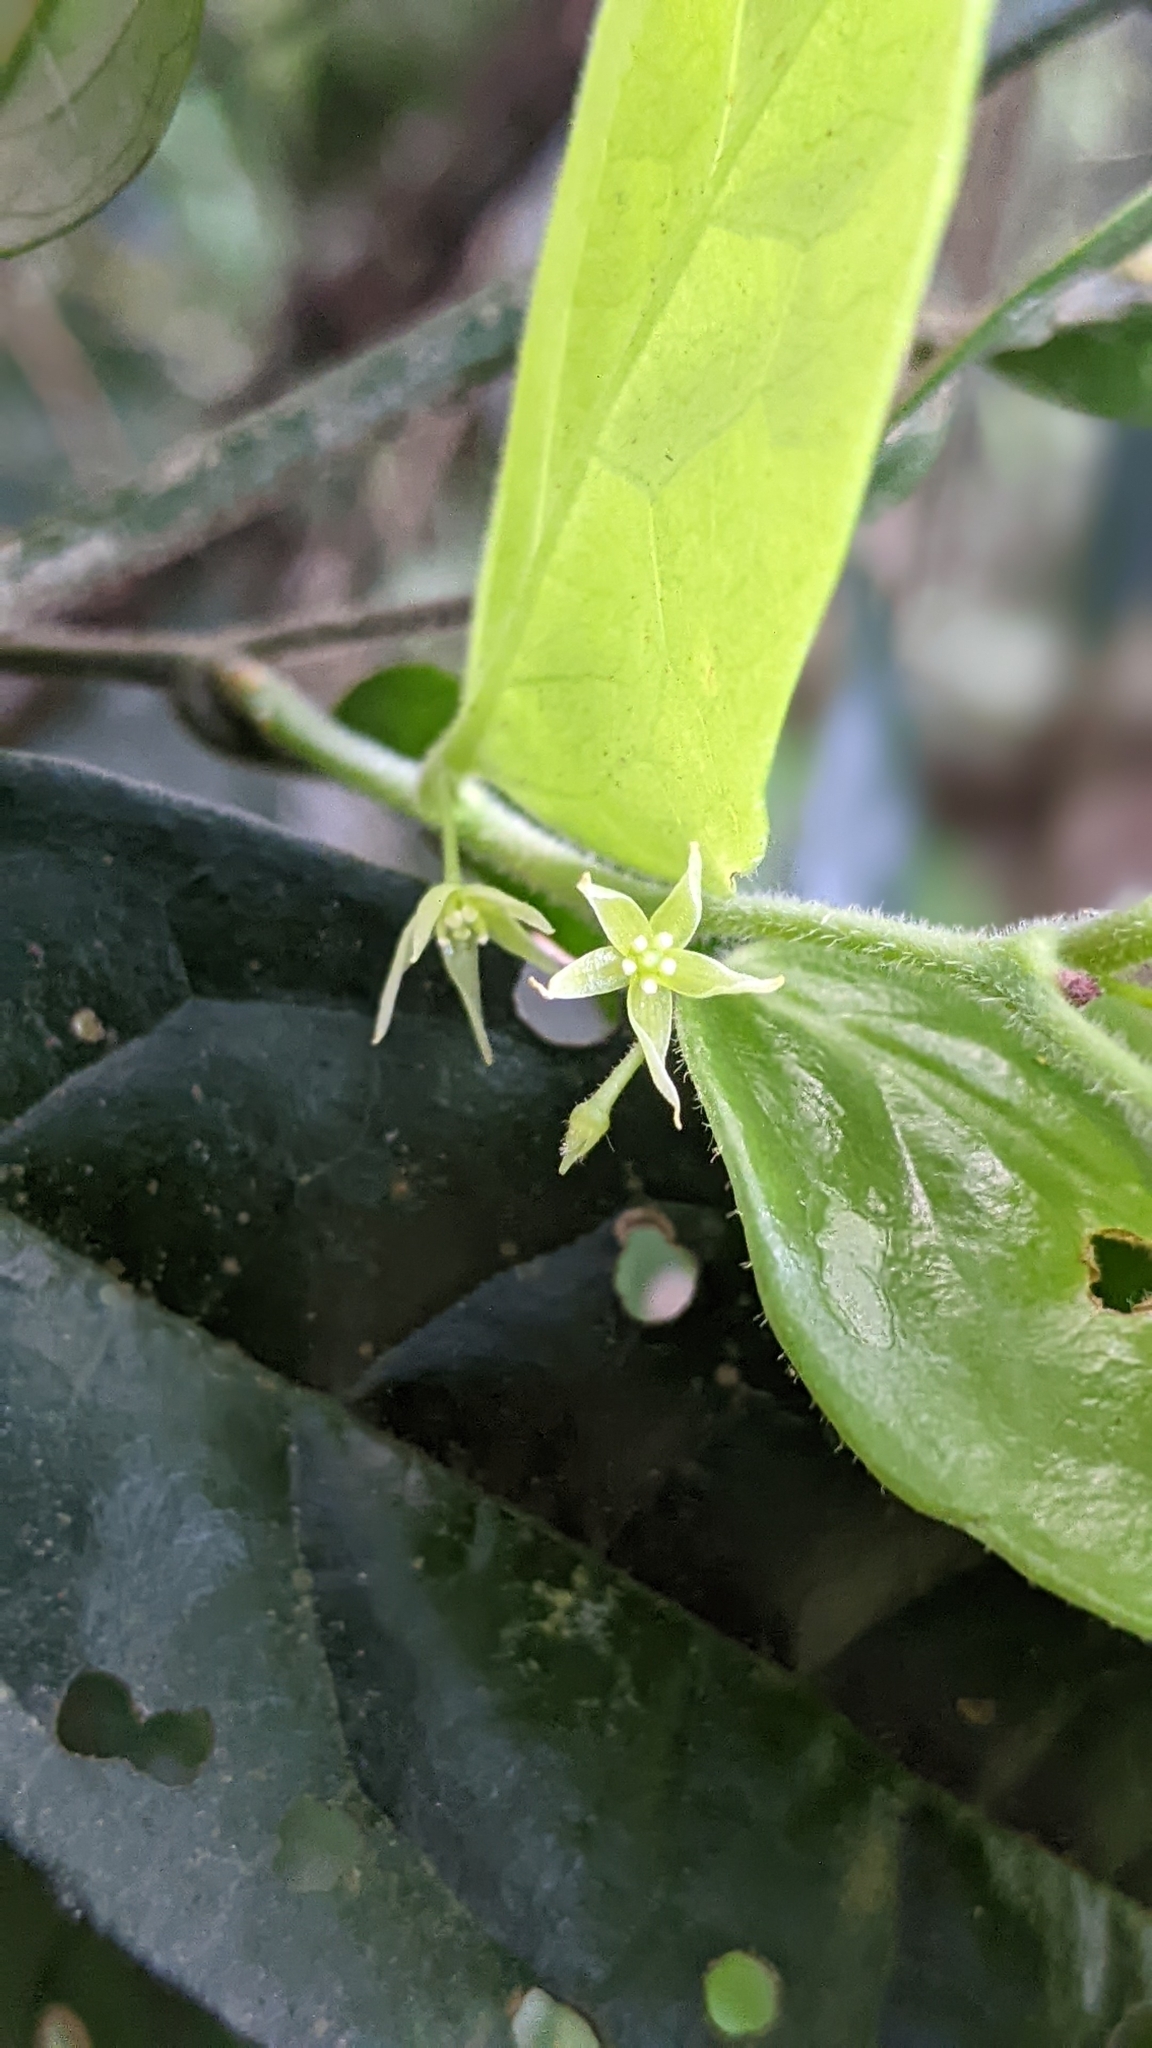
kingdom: Plantae
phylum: Tracheophyta
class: Magnoliopsida
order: Proteales
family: Sabiaceae
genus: Sabia
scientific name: Sabia swinhoei
